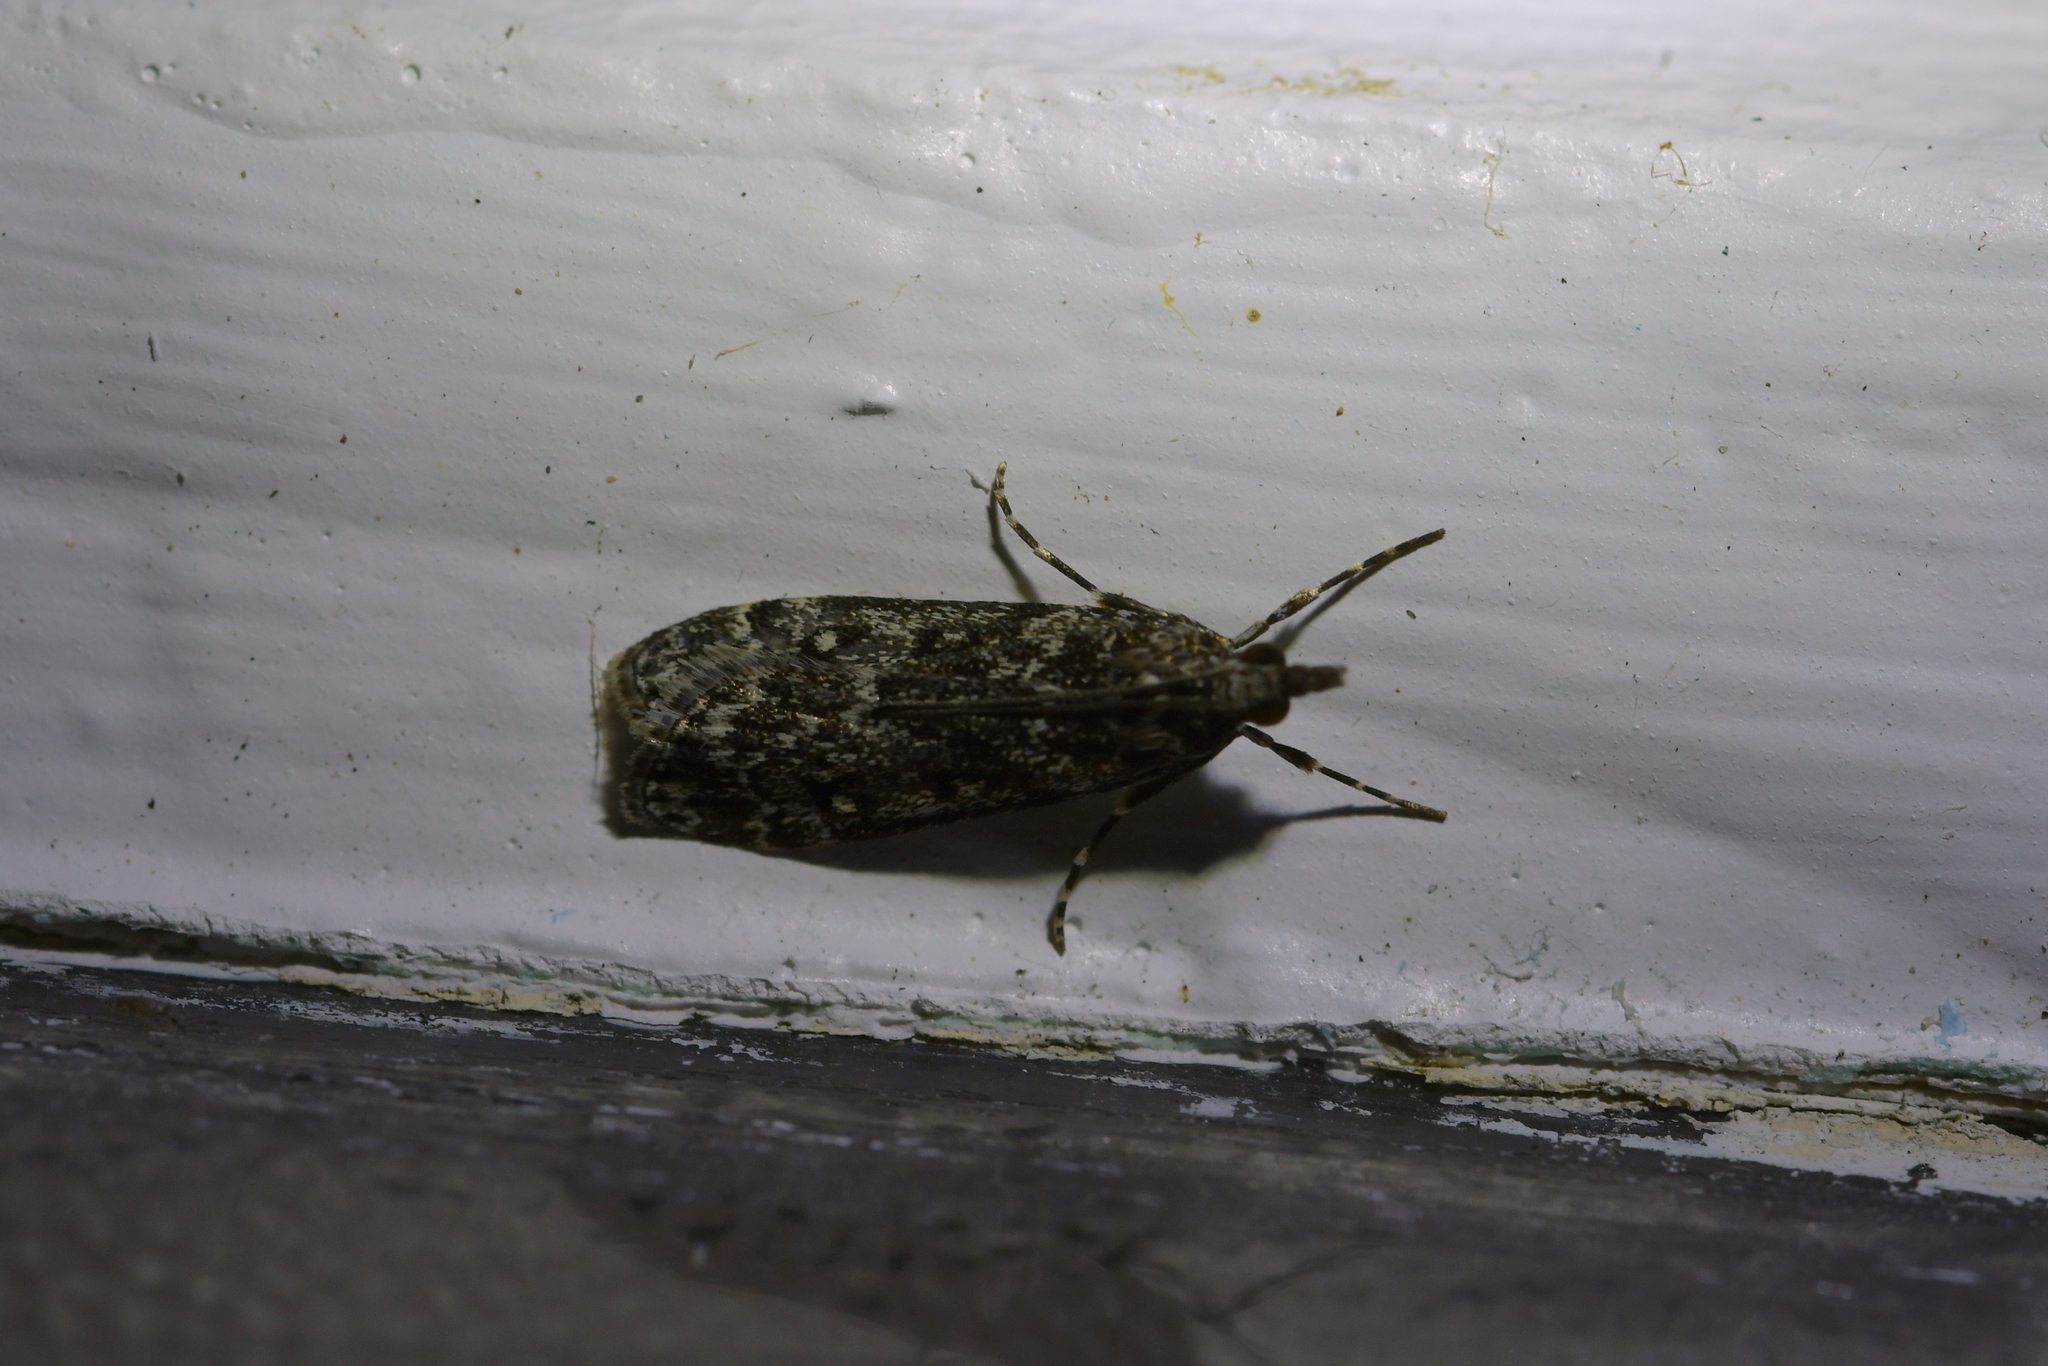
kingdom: Animalia
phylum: Arthropoda
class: Insecta
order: Lepidoptera
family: Crambidae
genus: Eudonia
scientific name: Eudonia philerga
